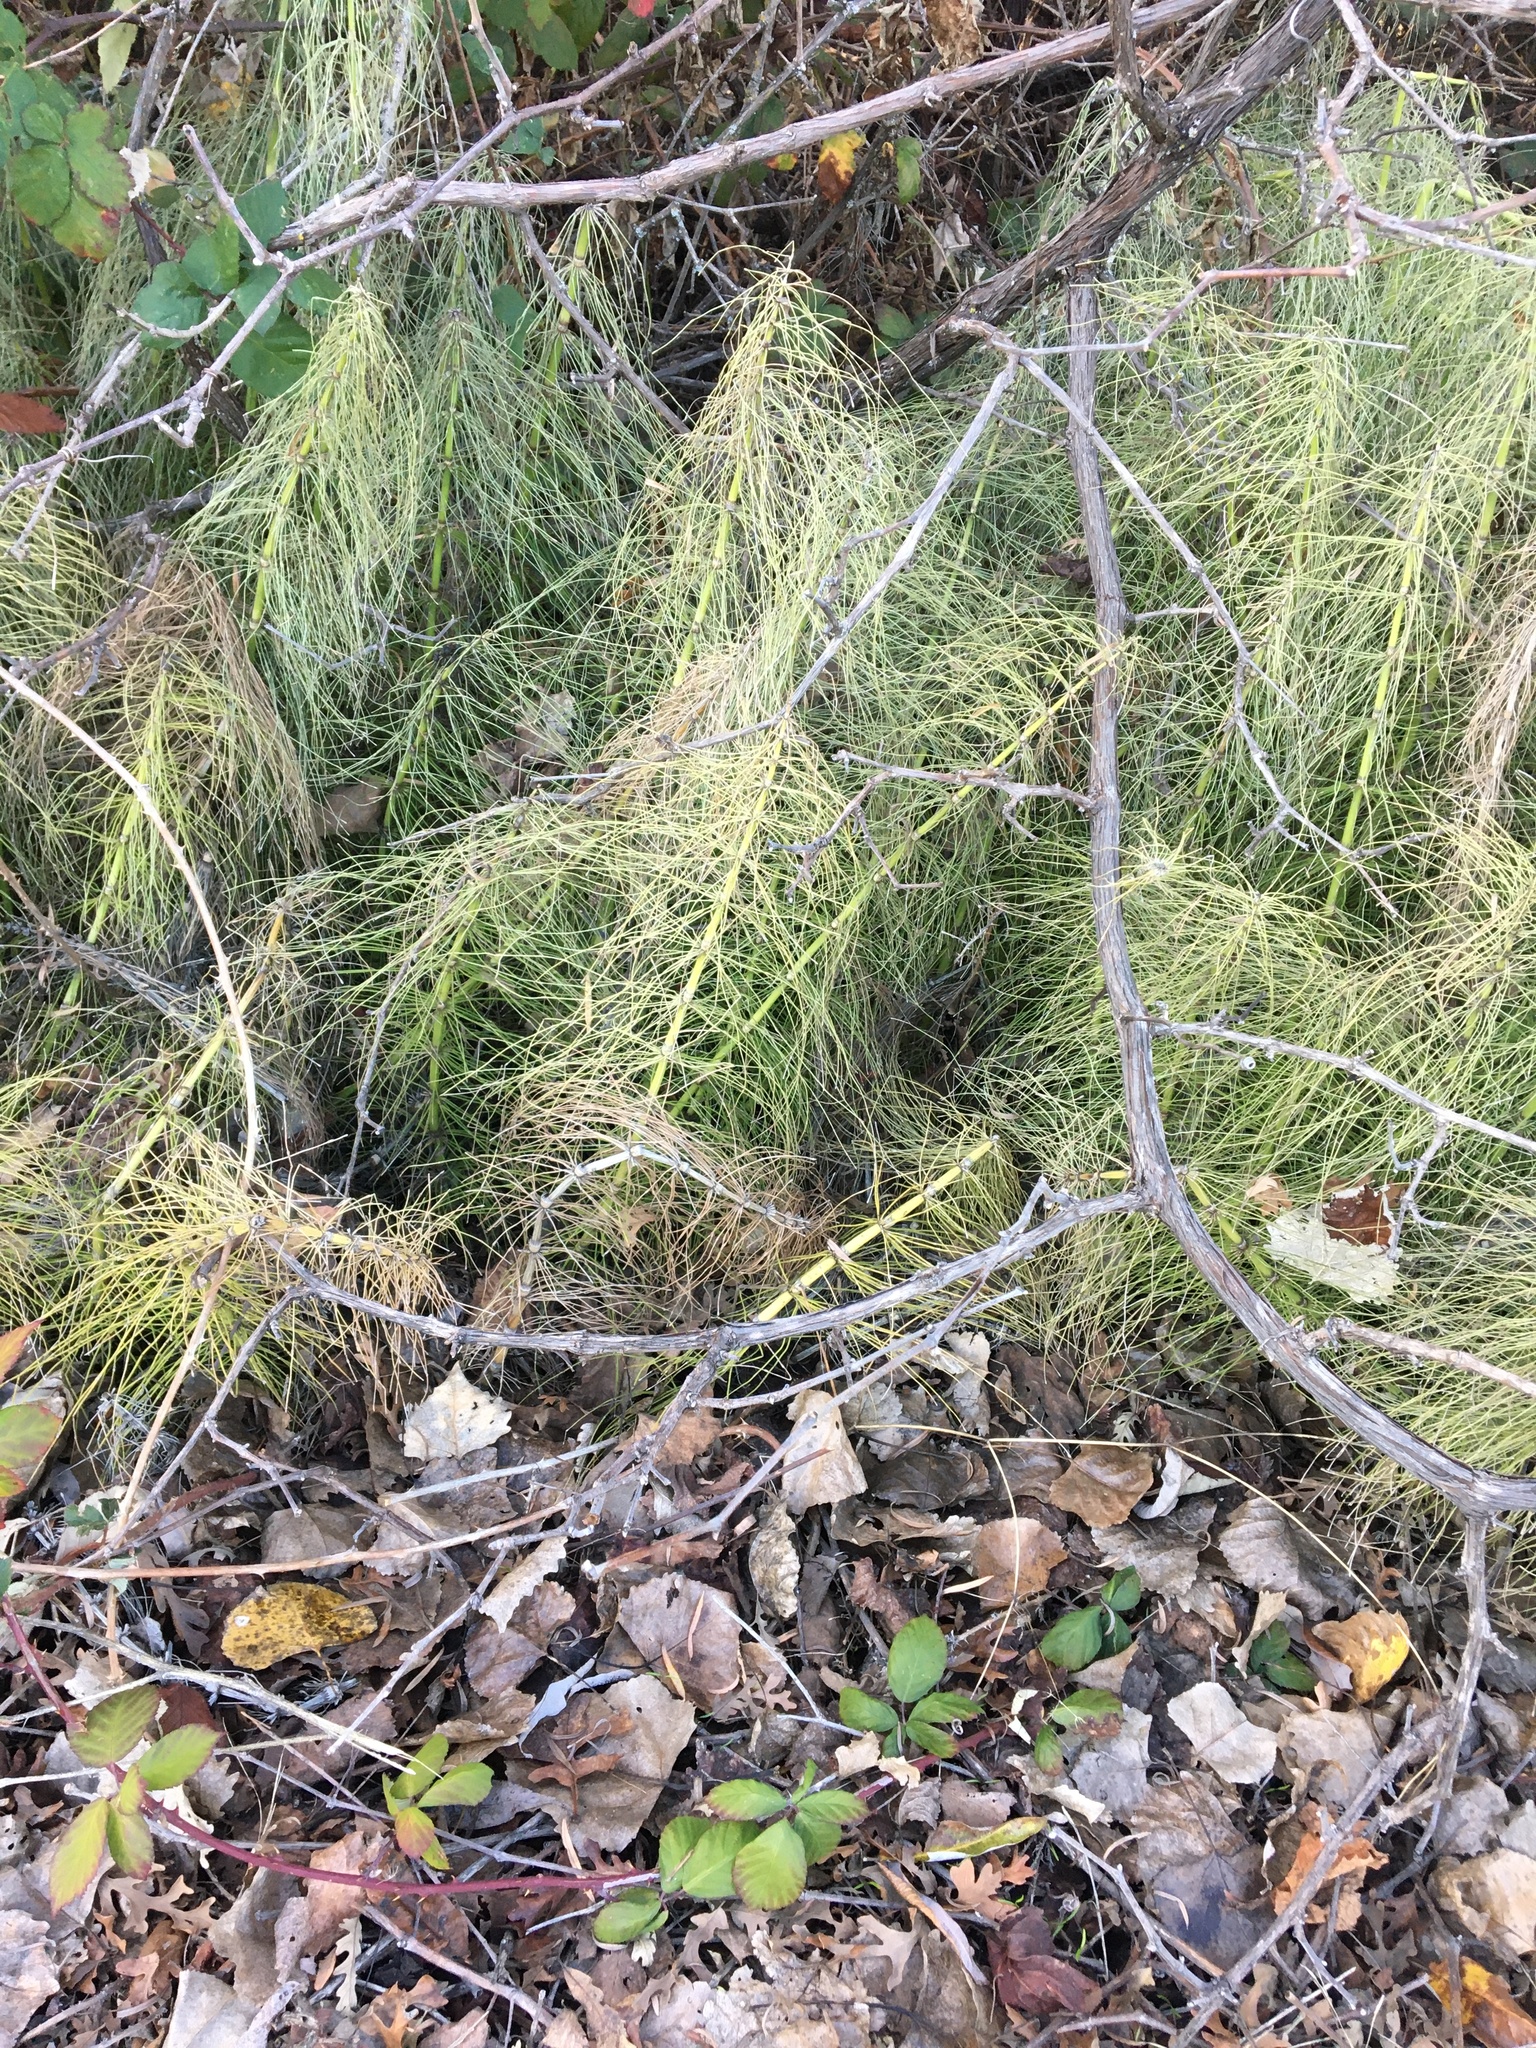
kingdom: Plantae
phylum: Tracheophyta
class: Polypodiopsida
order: Equisetales
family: Equisetaceae
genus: Equisetum
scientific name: Equisetum telmateia
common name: Great horsetail
